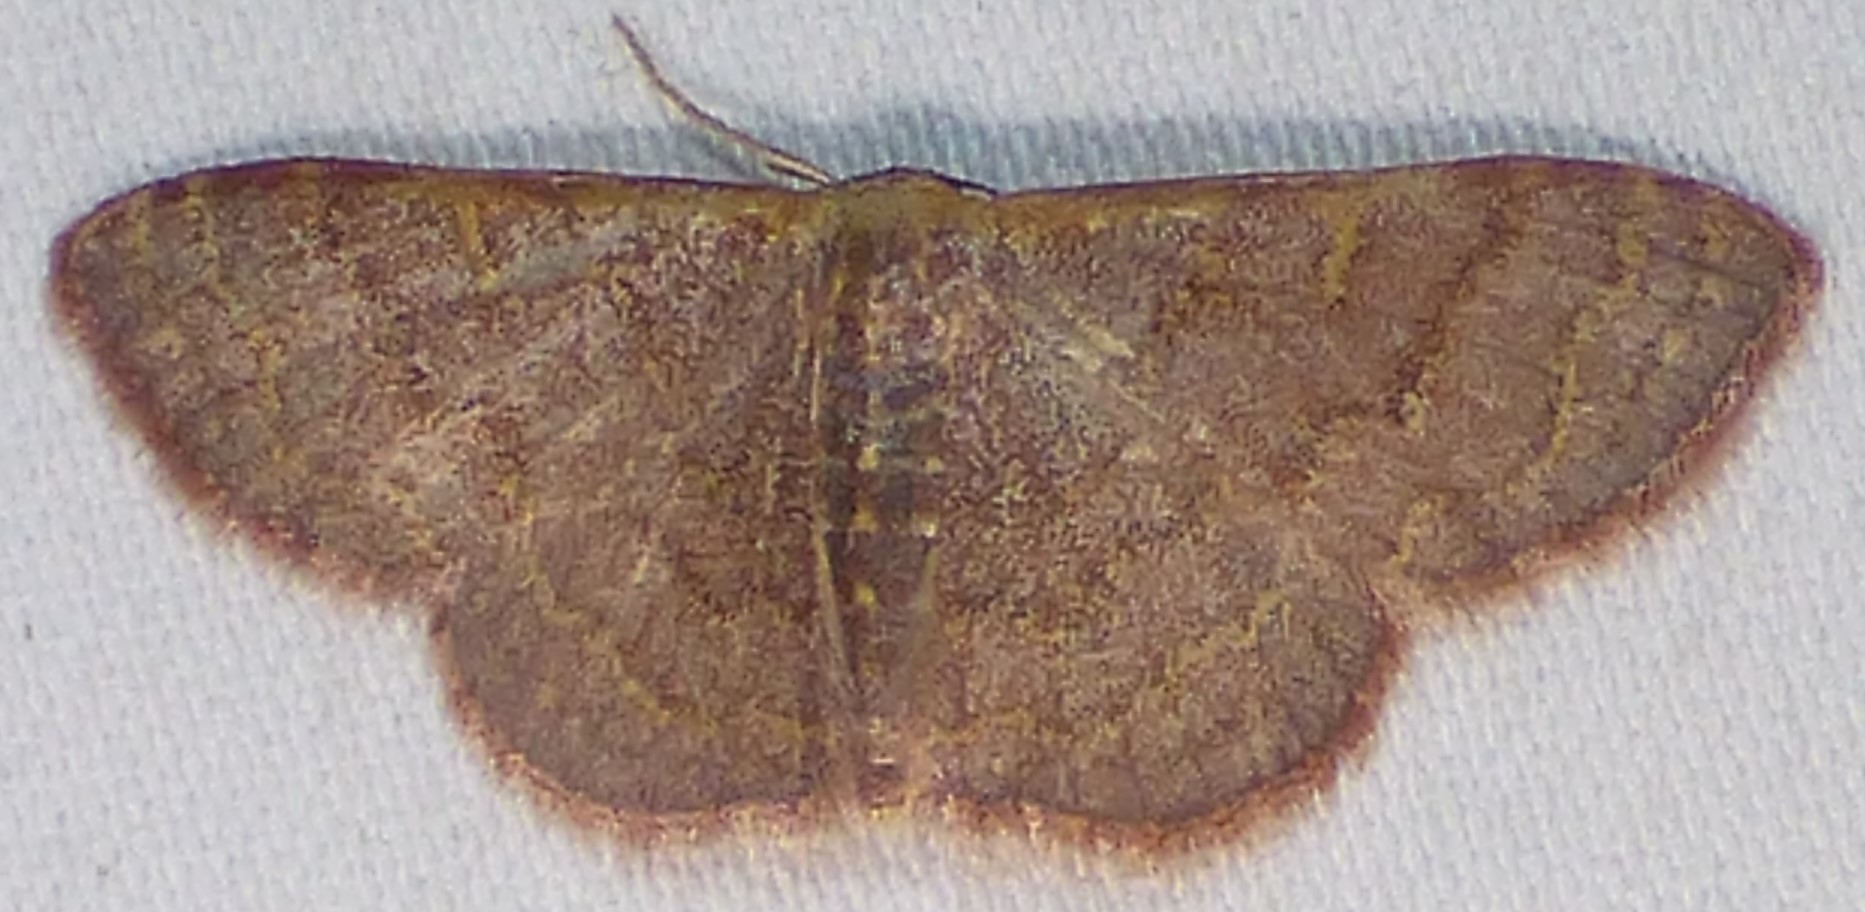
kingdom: Animalia
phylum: Arthropoda
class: Insecta
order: Lepidoptera
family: Geometridae
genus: Leptostales
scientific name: Leptostales pannaria
